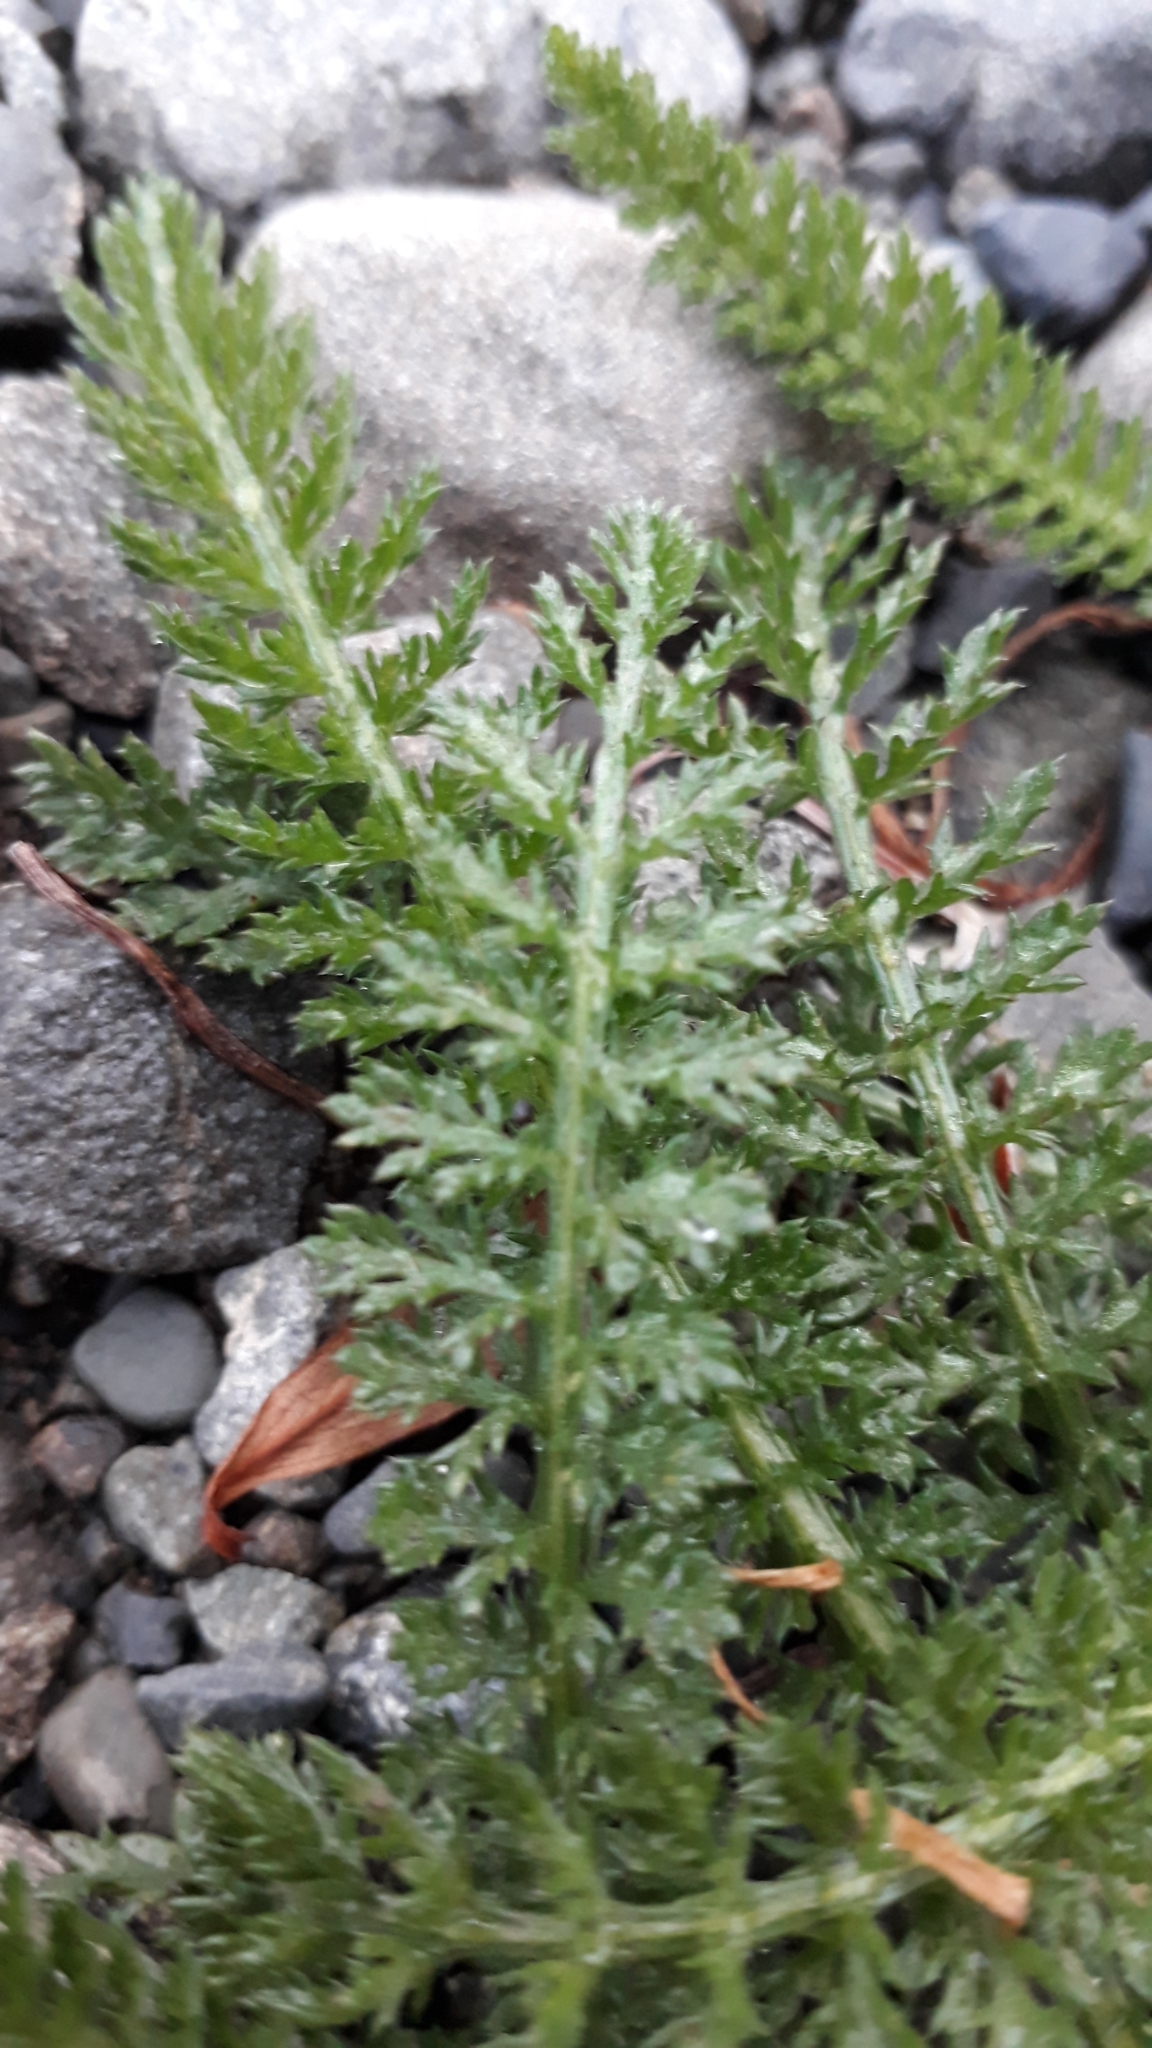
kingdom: Plantae
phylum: Tracheophyta
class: Magnoliopsida
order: Asterales
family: Asteraceae
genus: Achillea
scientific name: Achillea millefolium
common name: Yarrow
